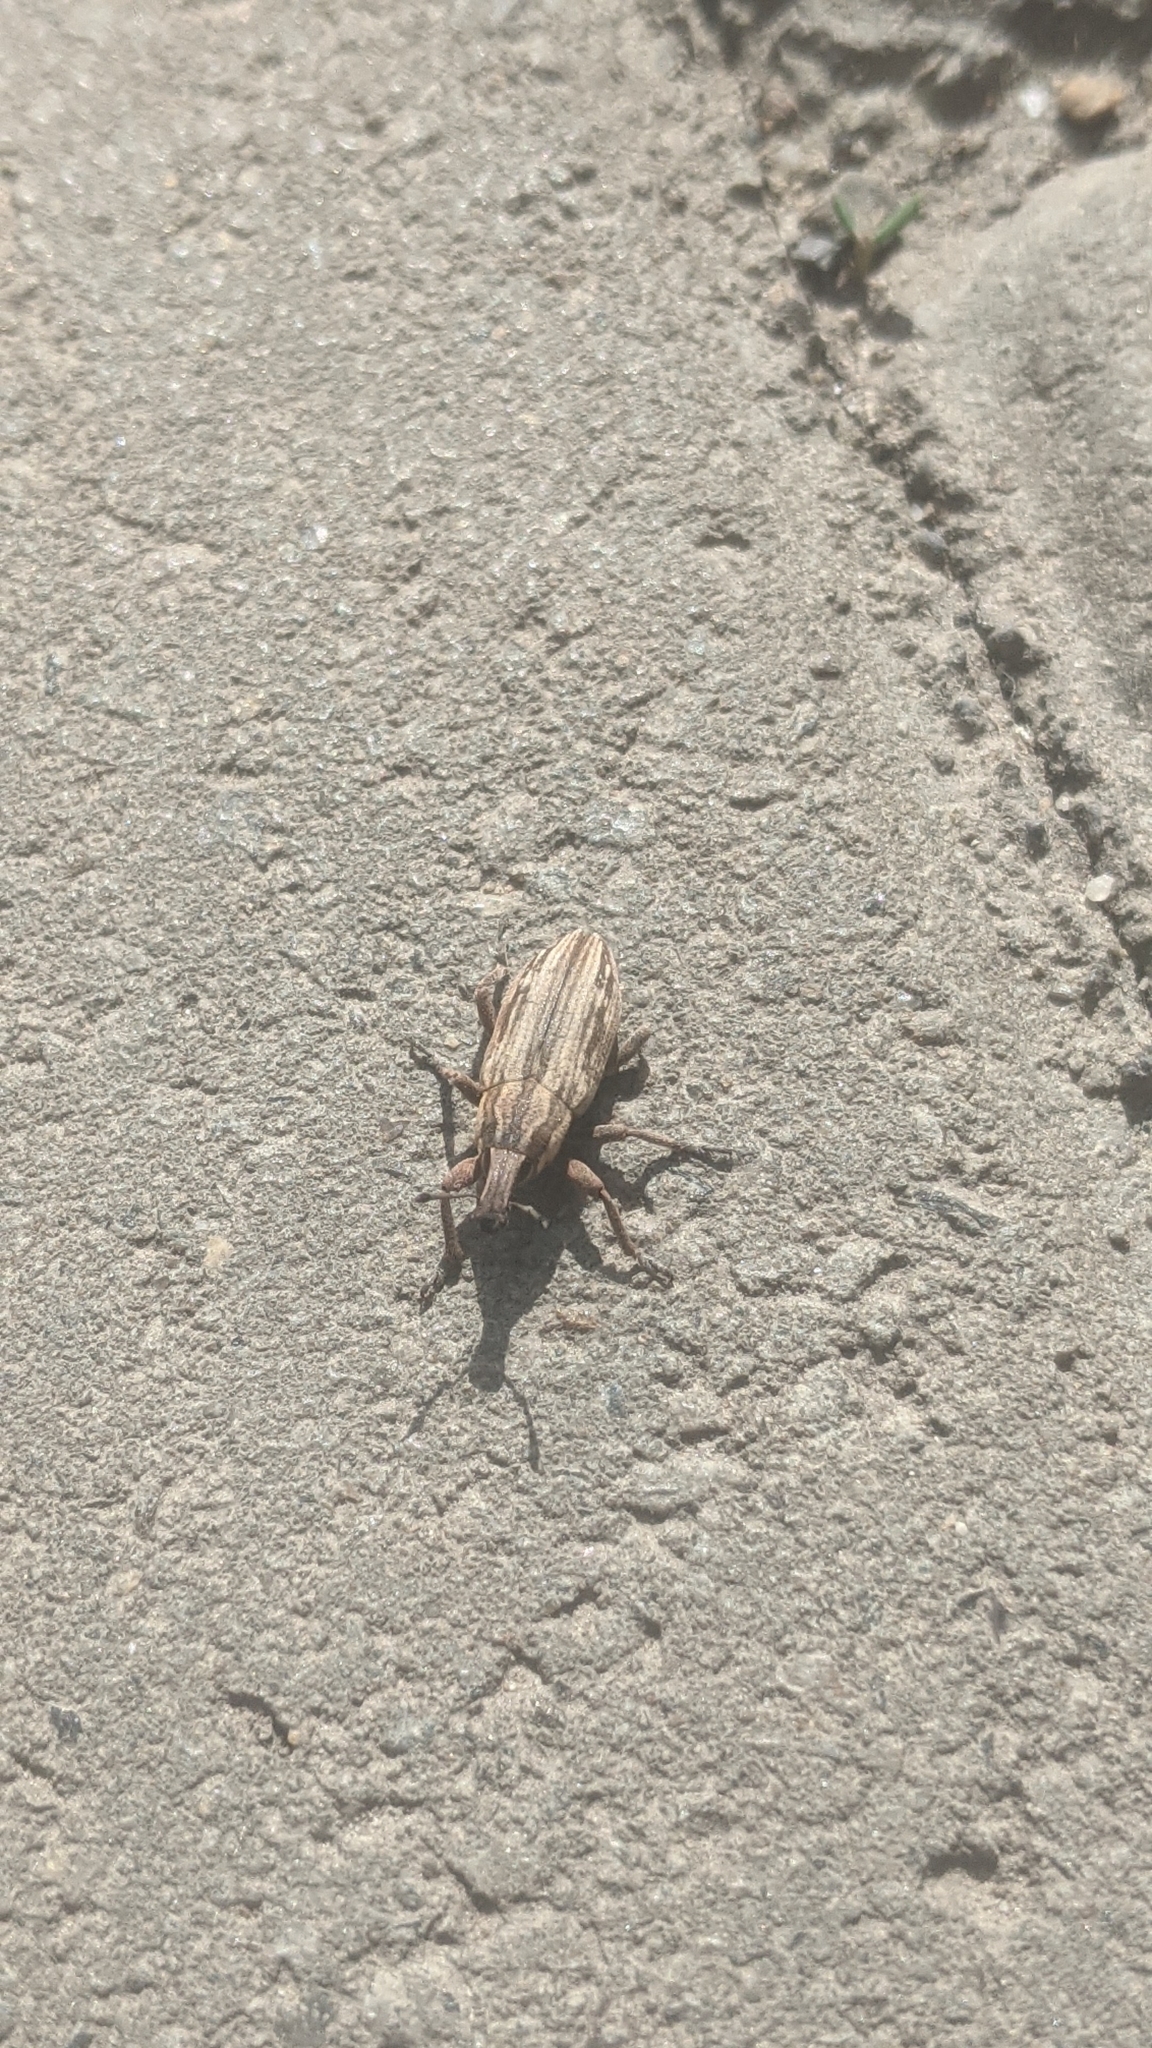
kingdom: Animalia
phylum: Arthropoda
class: Insecta
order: Coleoptera
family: Curculionidae
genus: Mecaspis
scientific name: Mecaspis alternans
